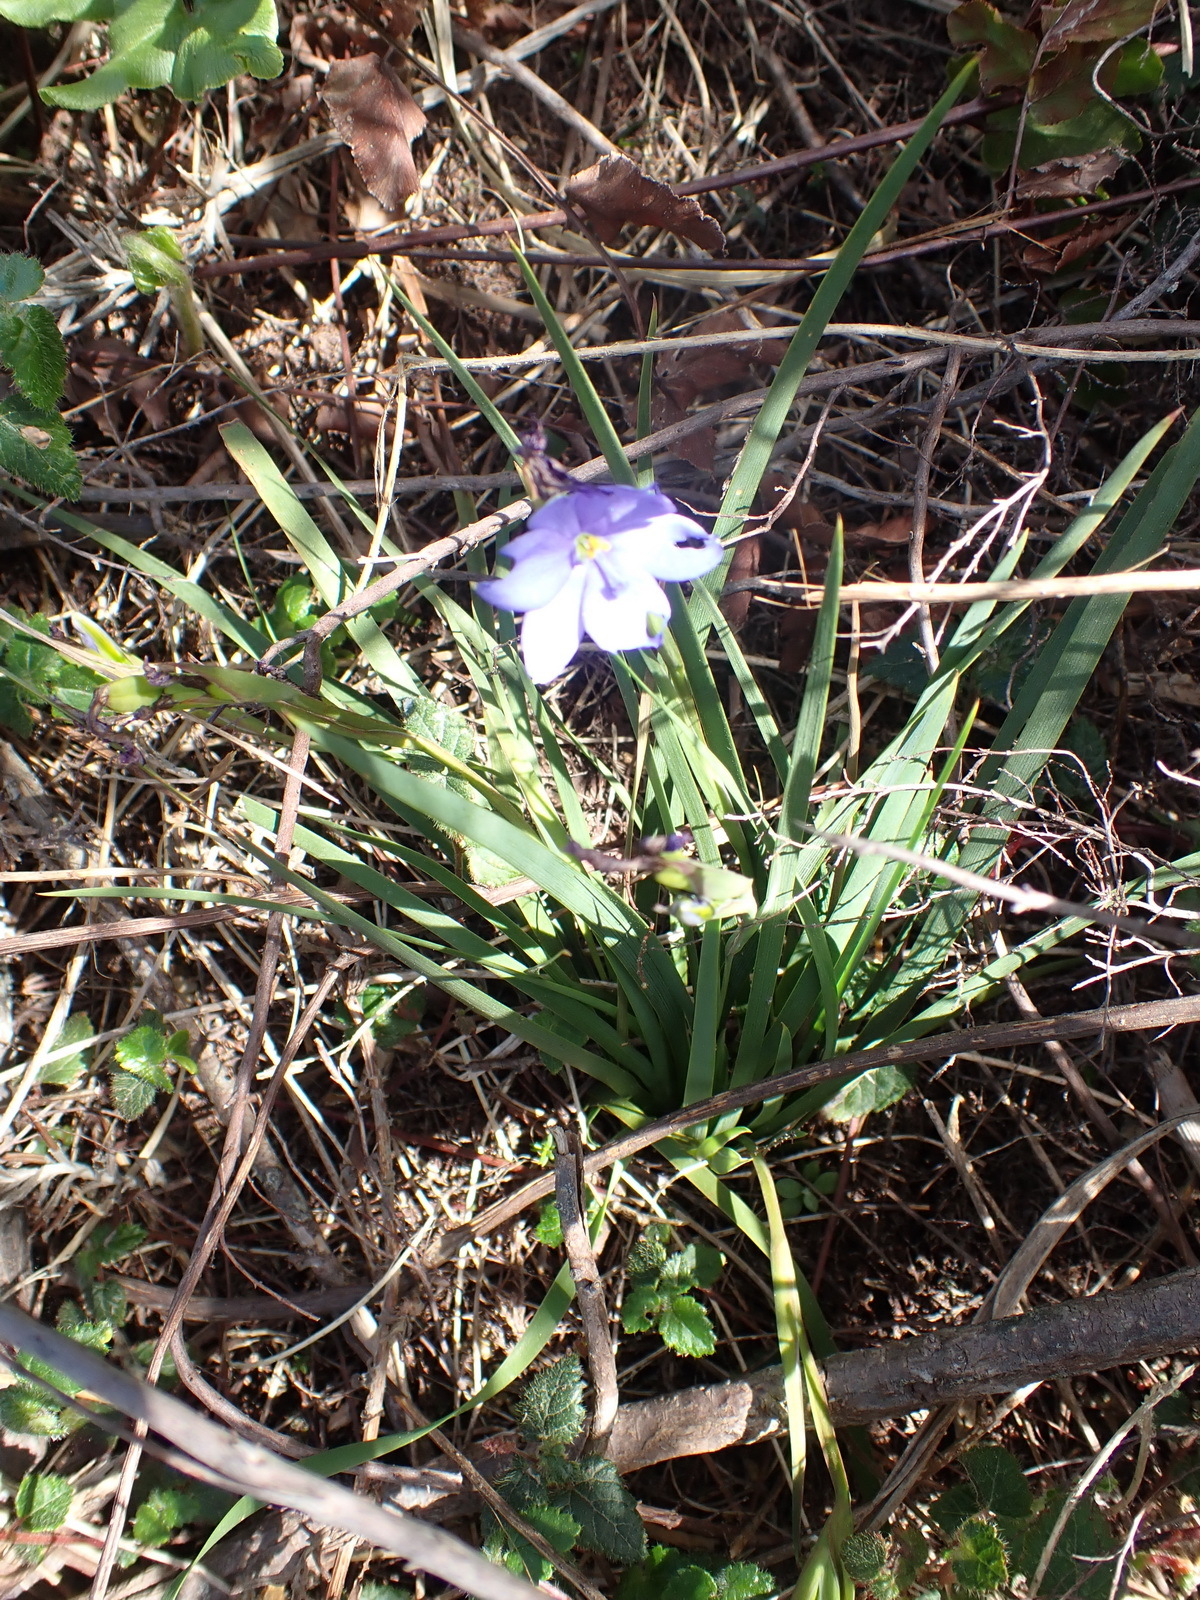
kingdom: Plantae
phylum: Tracheophyta
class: Liliopsida
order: Asparagales
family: Iridaceae
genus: Aristea
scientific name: Aristea pusilla
